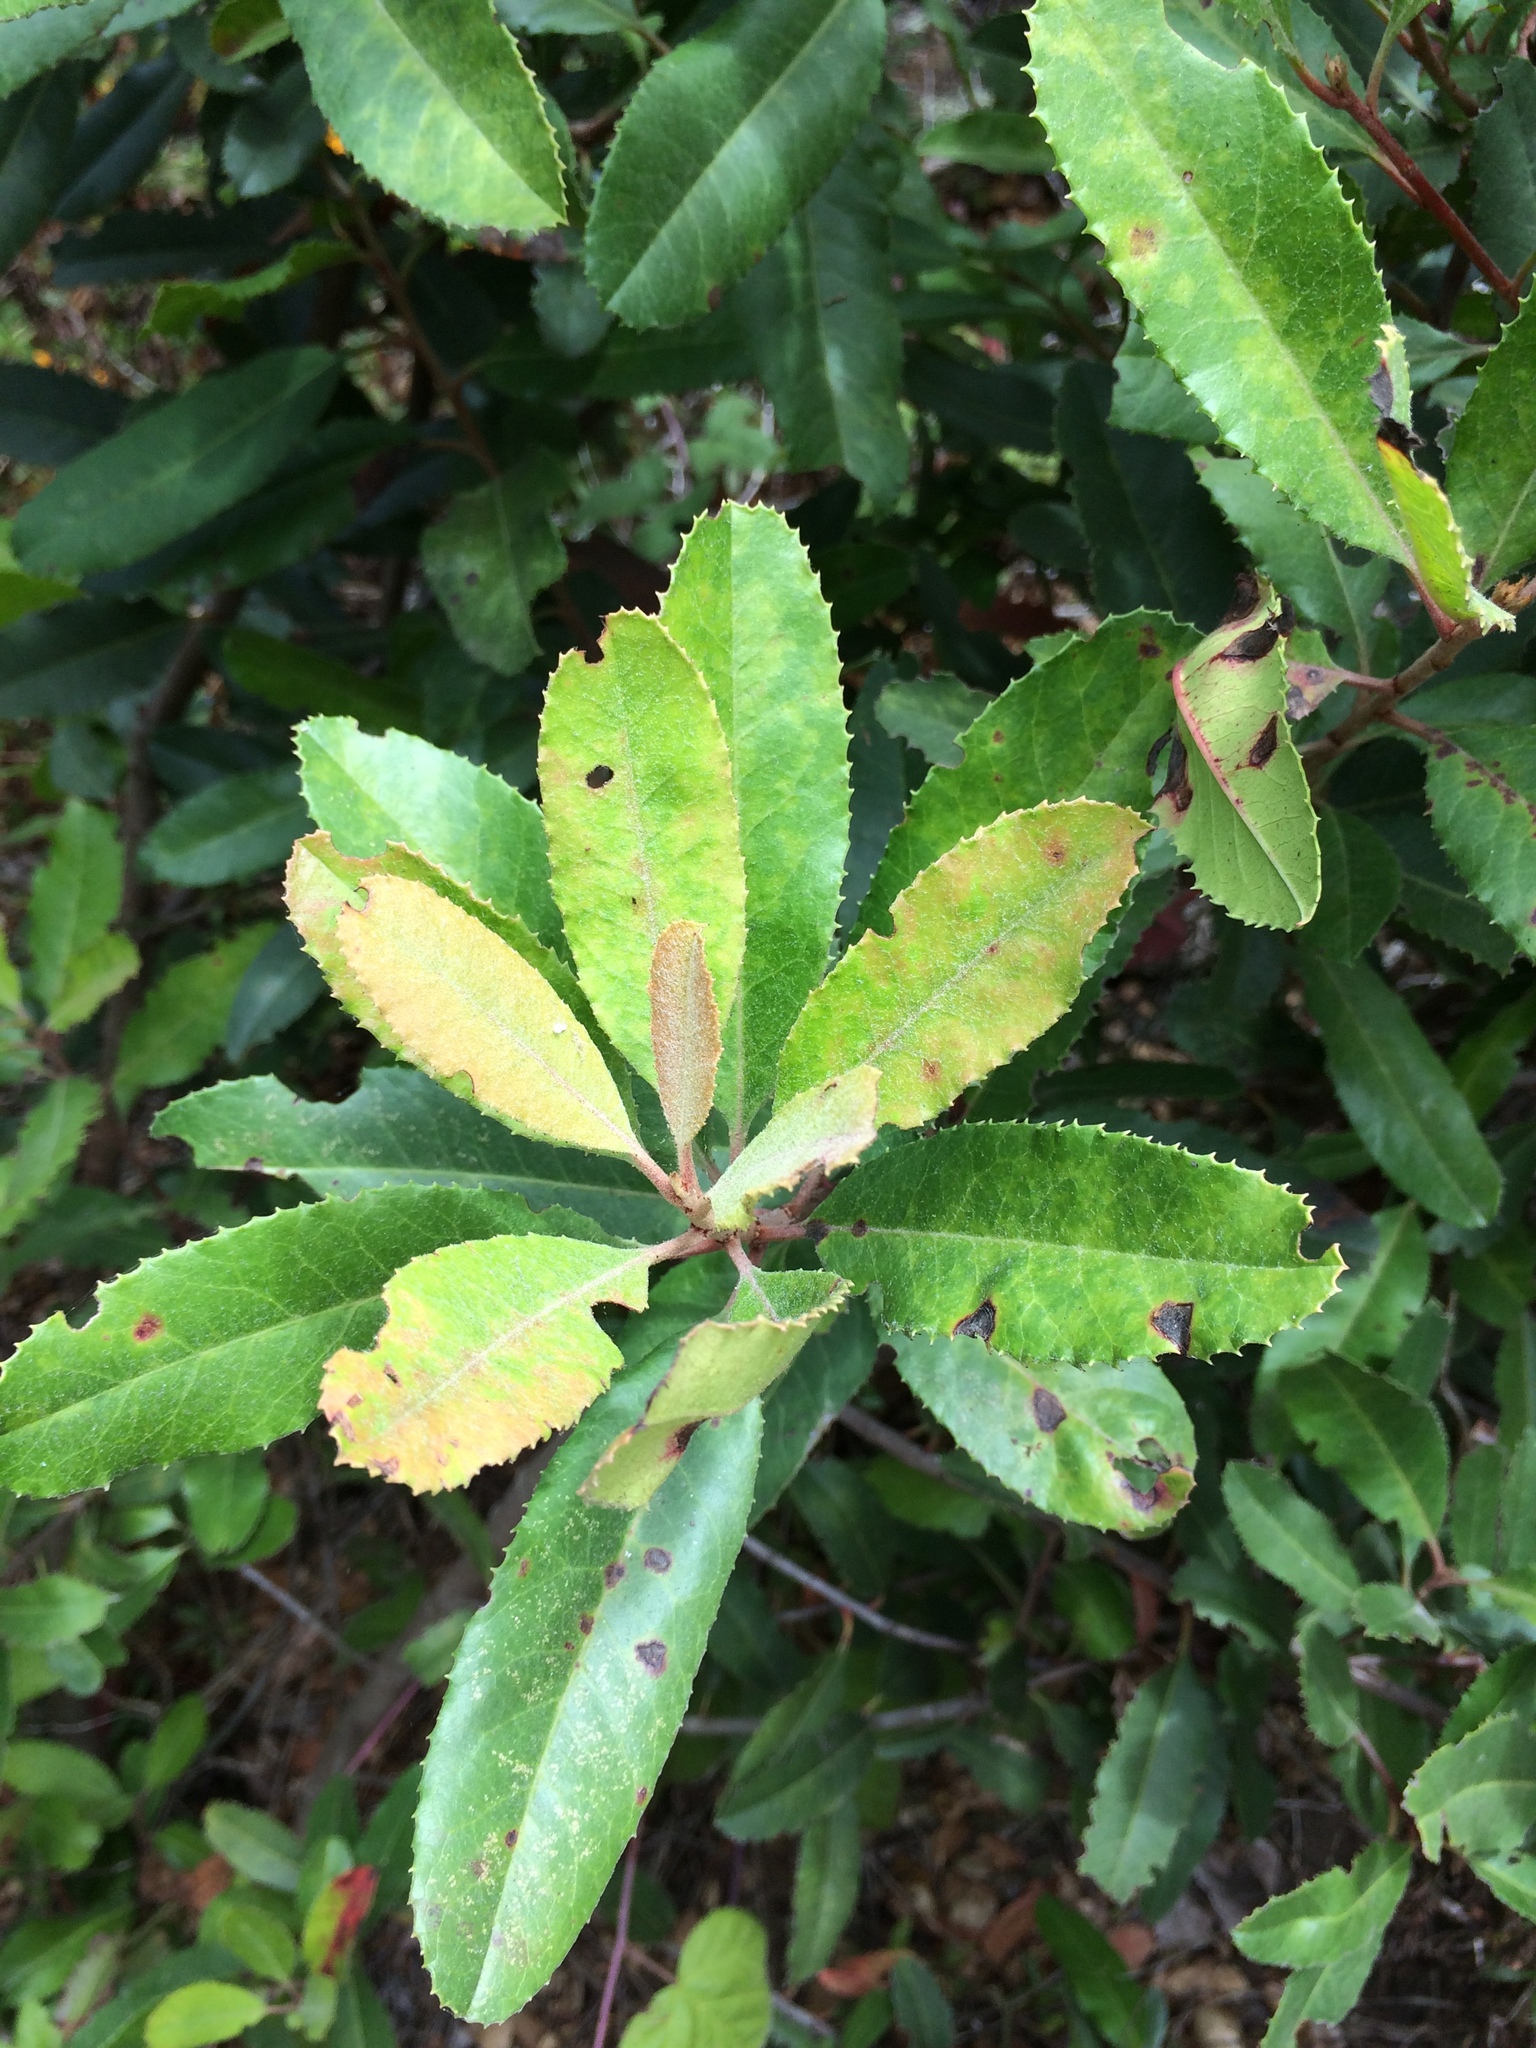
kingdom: Plantae
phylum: Tracheophyta
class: Magnoliopsida
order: Rosales
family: Rosaceae
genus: Heteromeles
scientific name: Heteromeles arbutifolia
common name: California-holly
